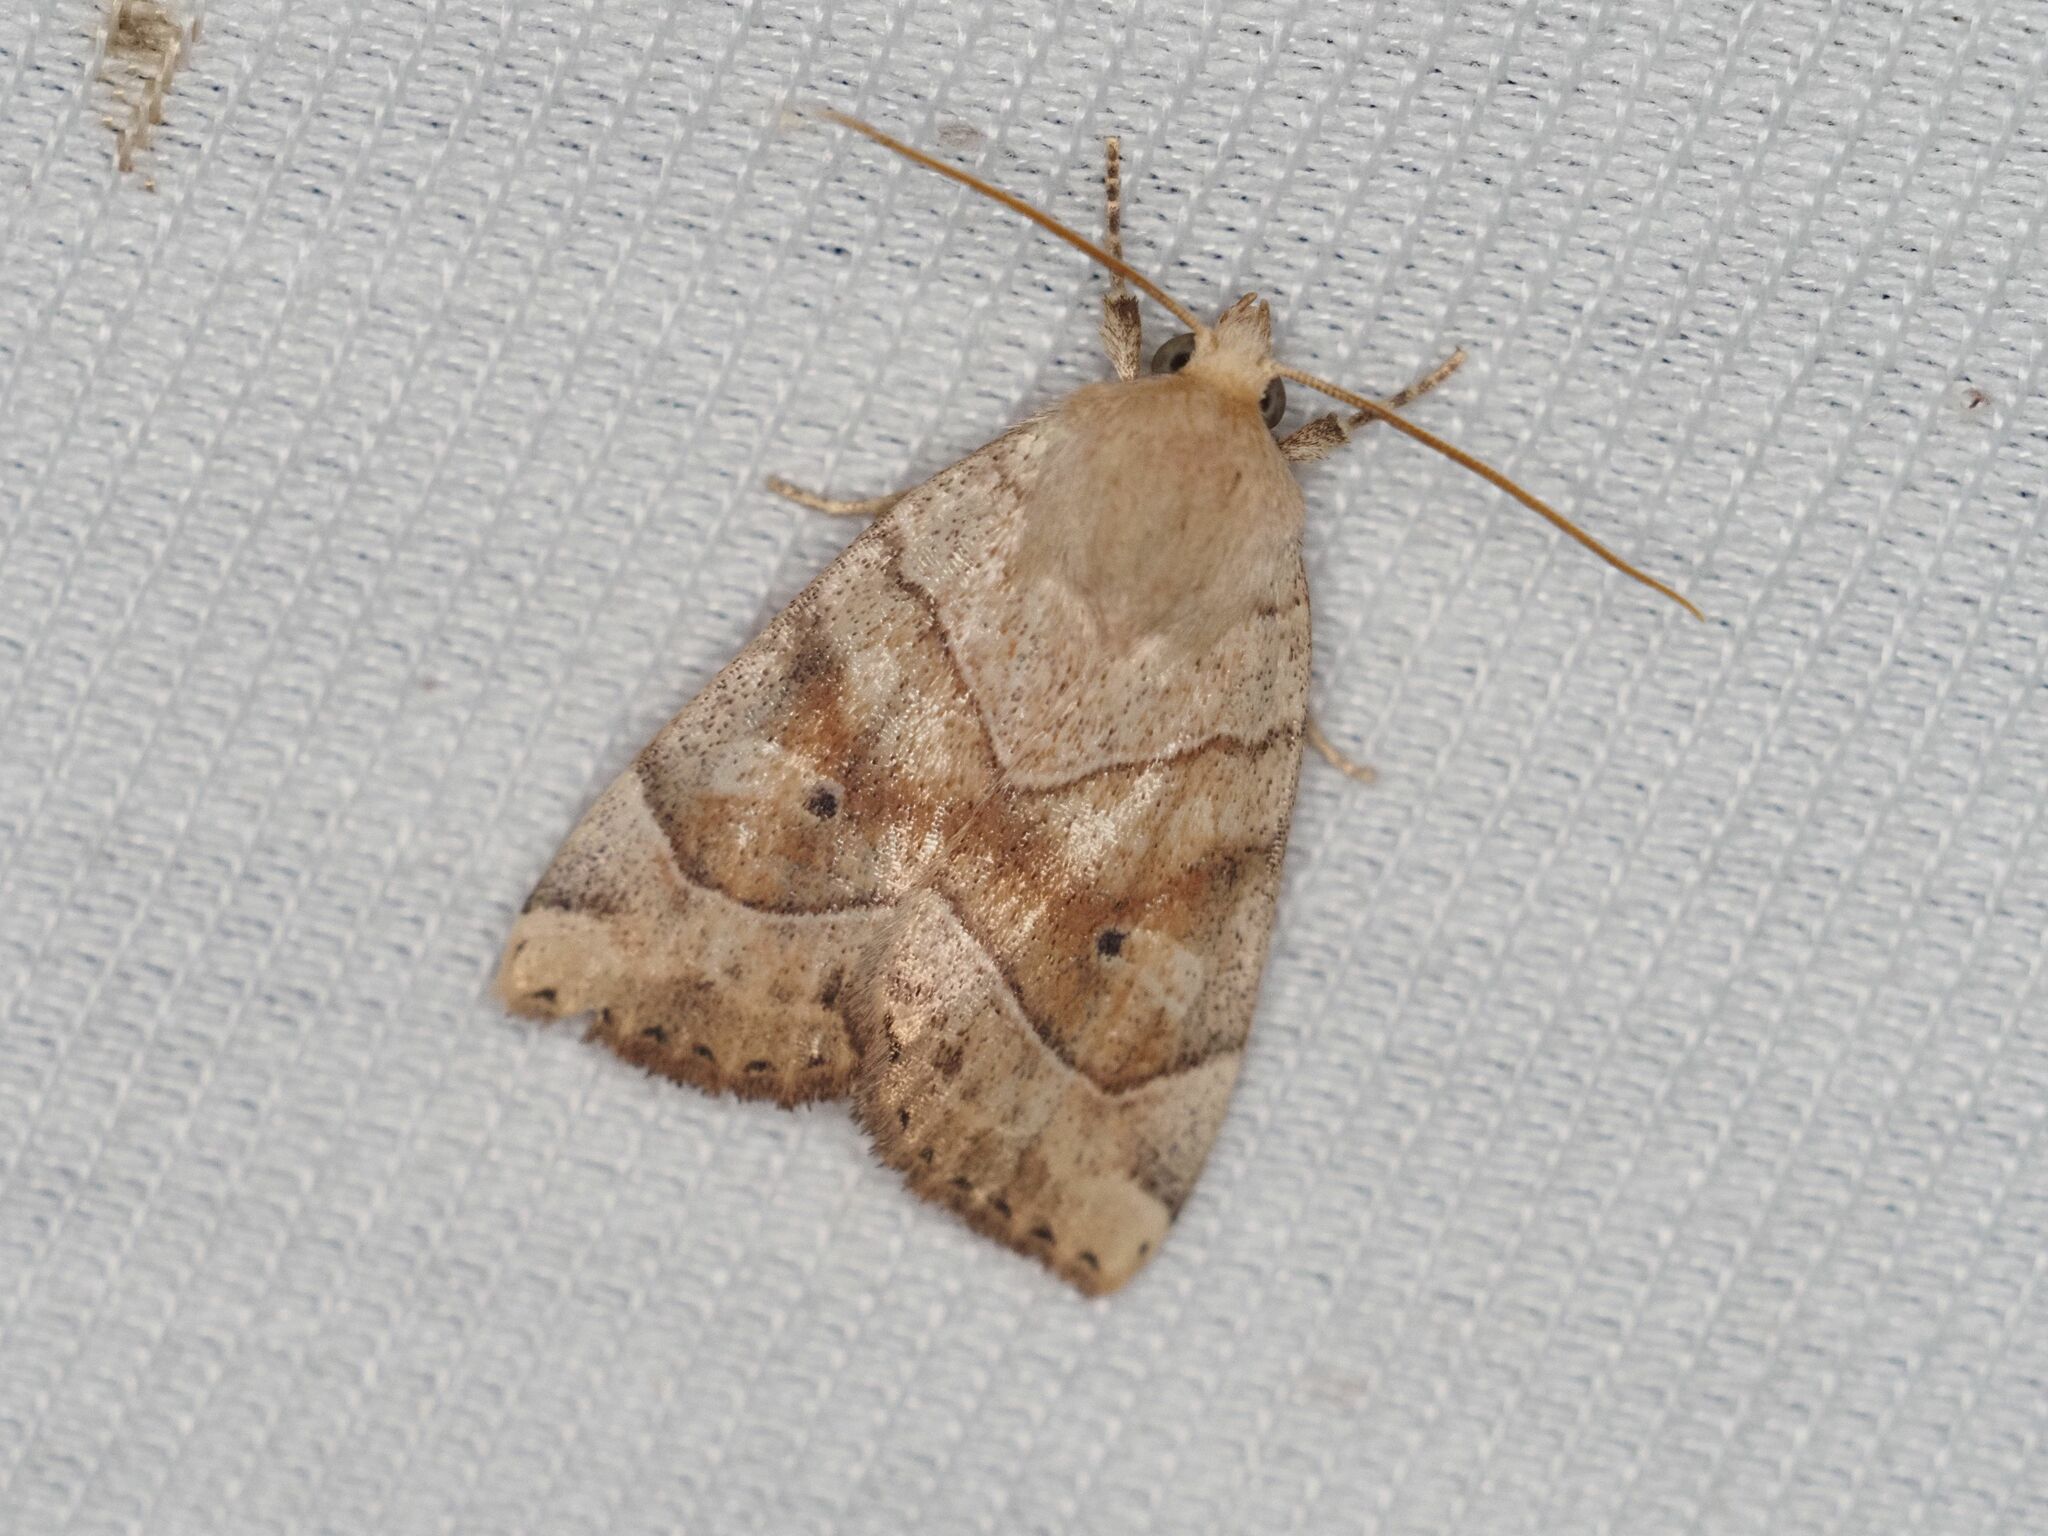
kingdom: Animalia
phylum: Arthropoda
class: Insecta
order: Lepidoptera
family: Noctuidae
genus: Cosmia
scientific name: Cosmia trapezina
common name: Dun-bar
